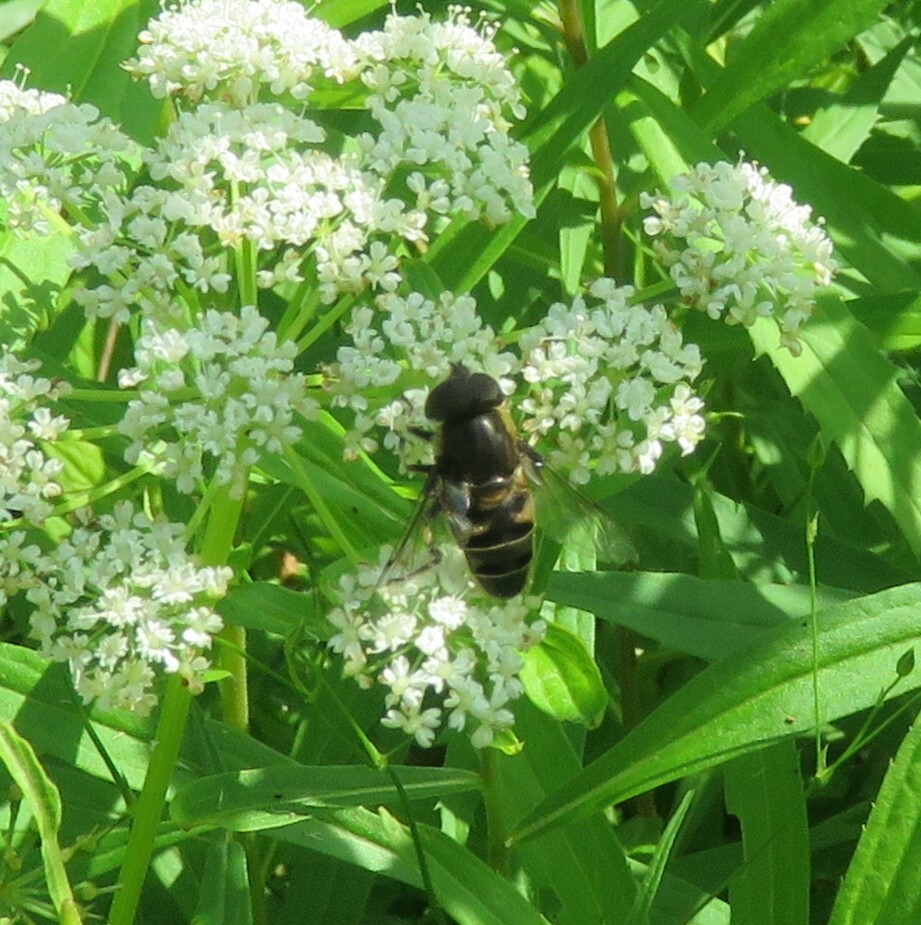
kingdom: Animalia
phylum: Arthropoda
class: Insecta
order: Diptera
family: Syrphidae
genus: Eristalis
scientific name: Eristalis dimidiata
